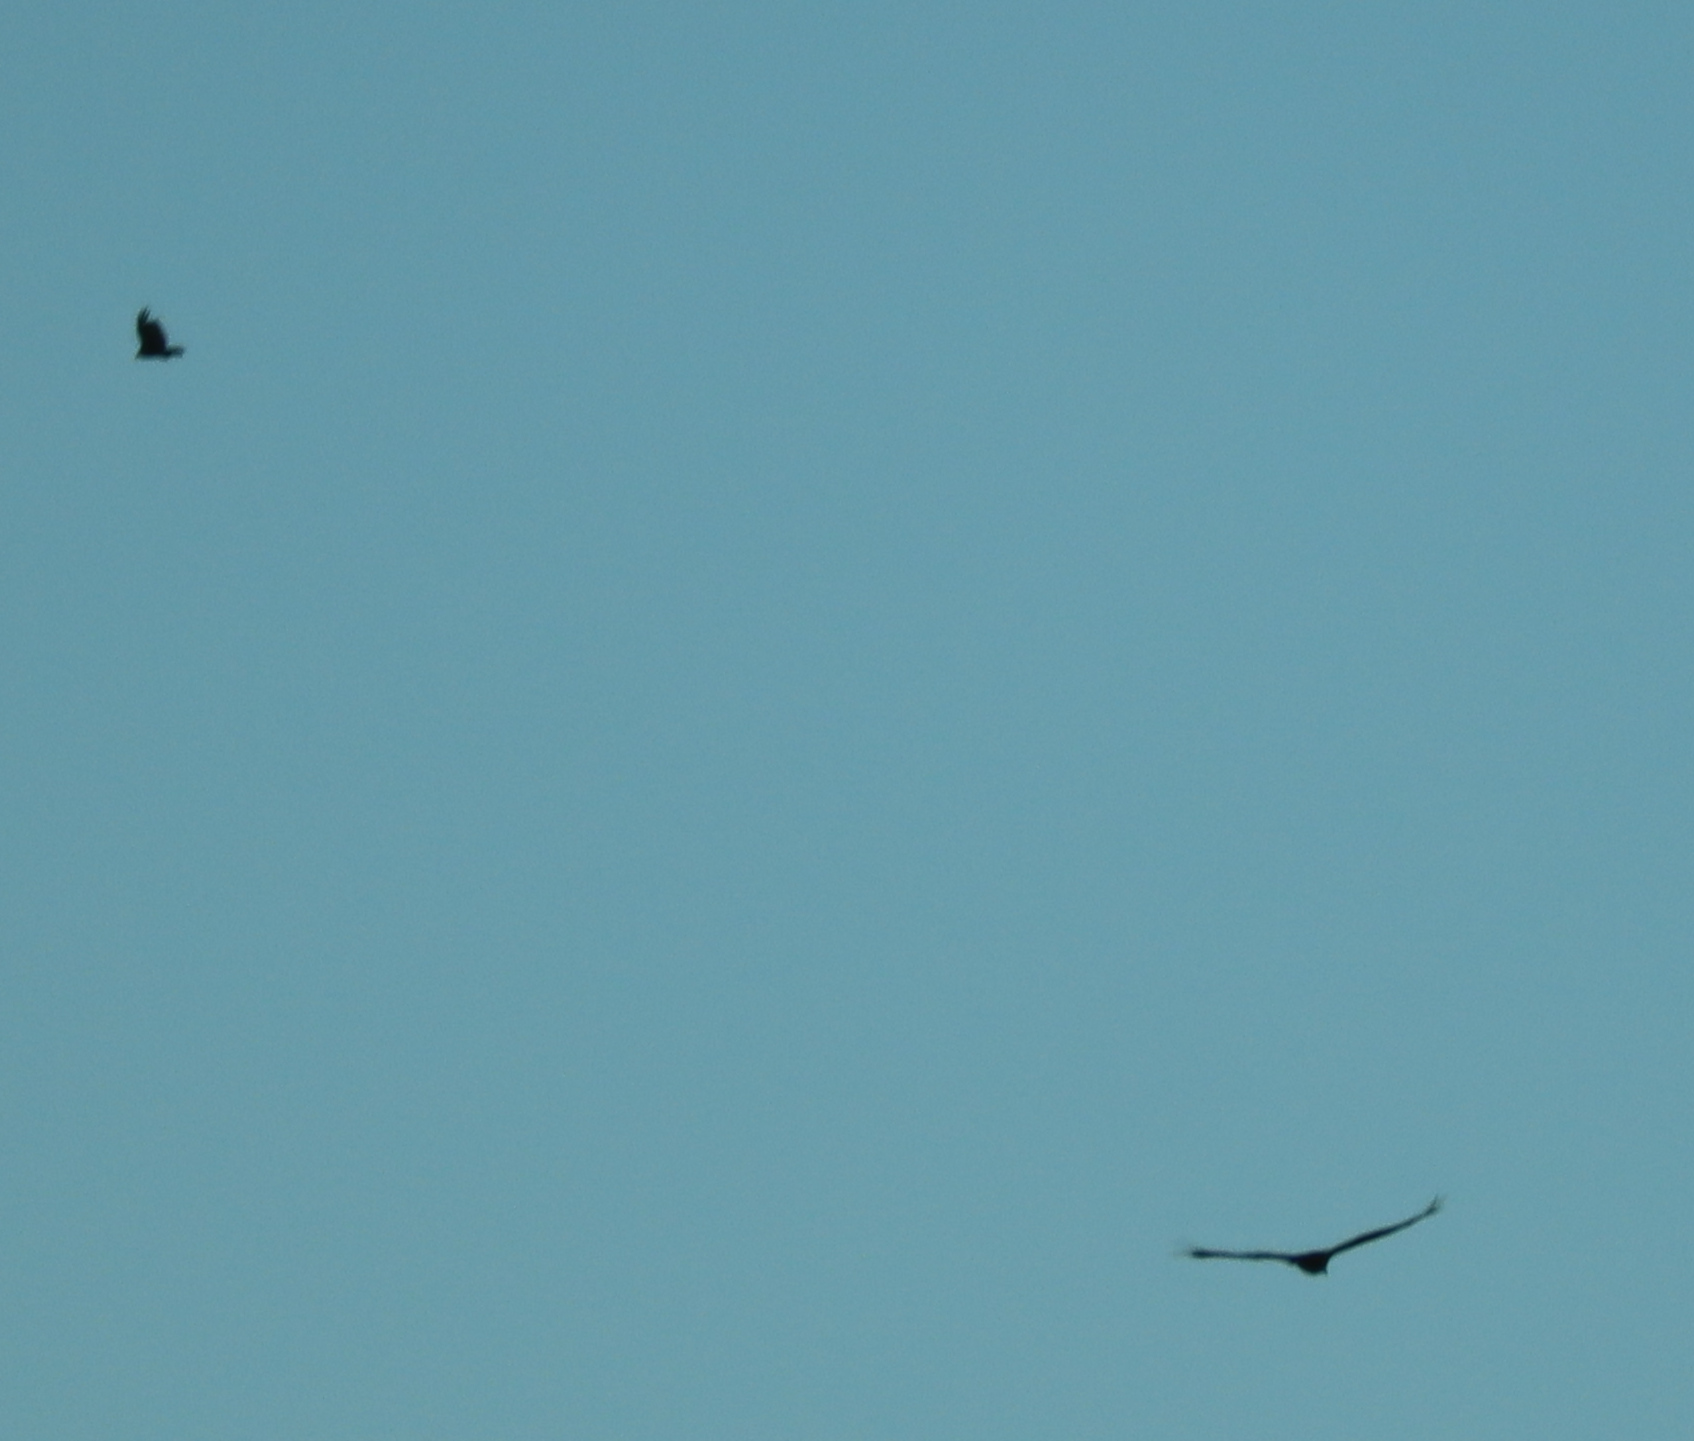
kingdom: Animalia
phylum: Chordata
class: Aves
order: Accipitriformes
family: Cathartidae
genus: Cathartes
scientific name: Cathartes aura
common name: Turkey vulture
